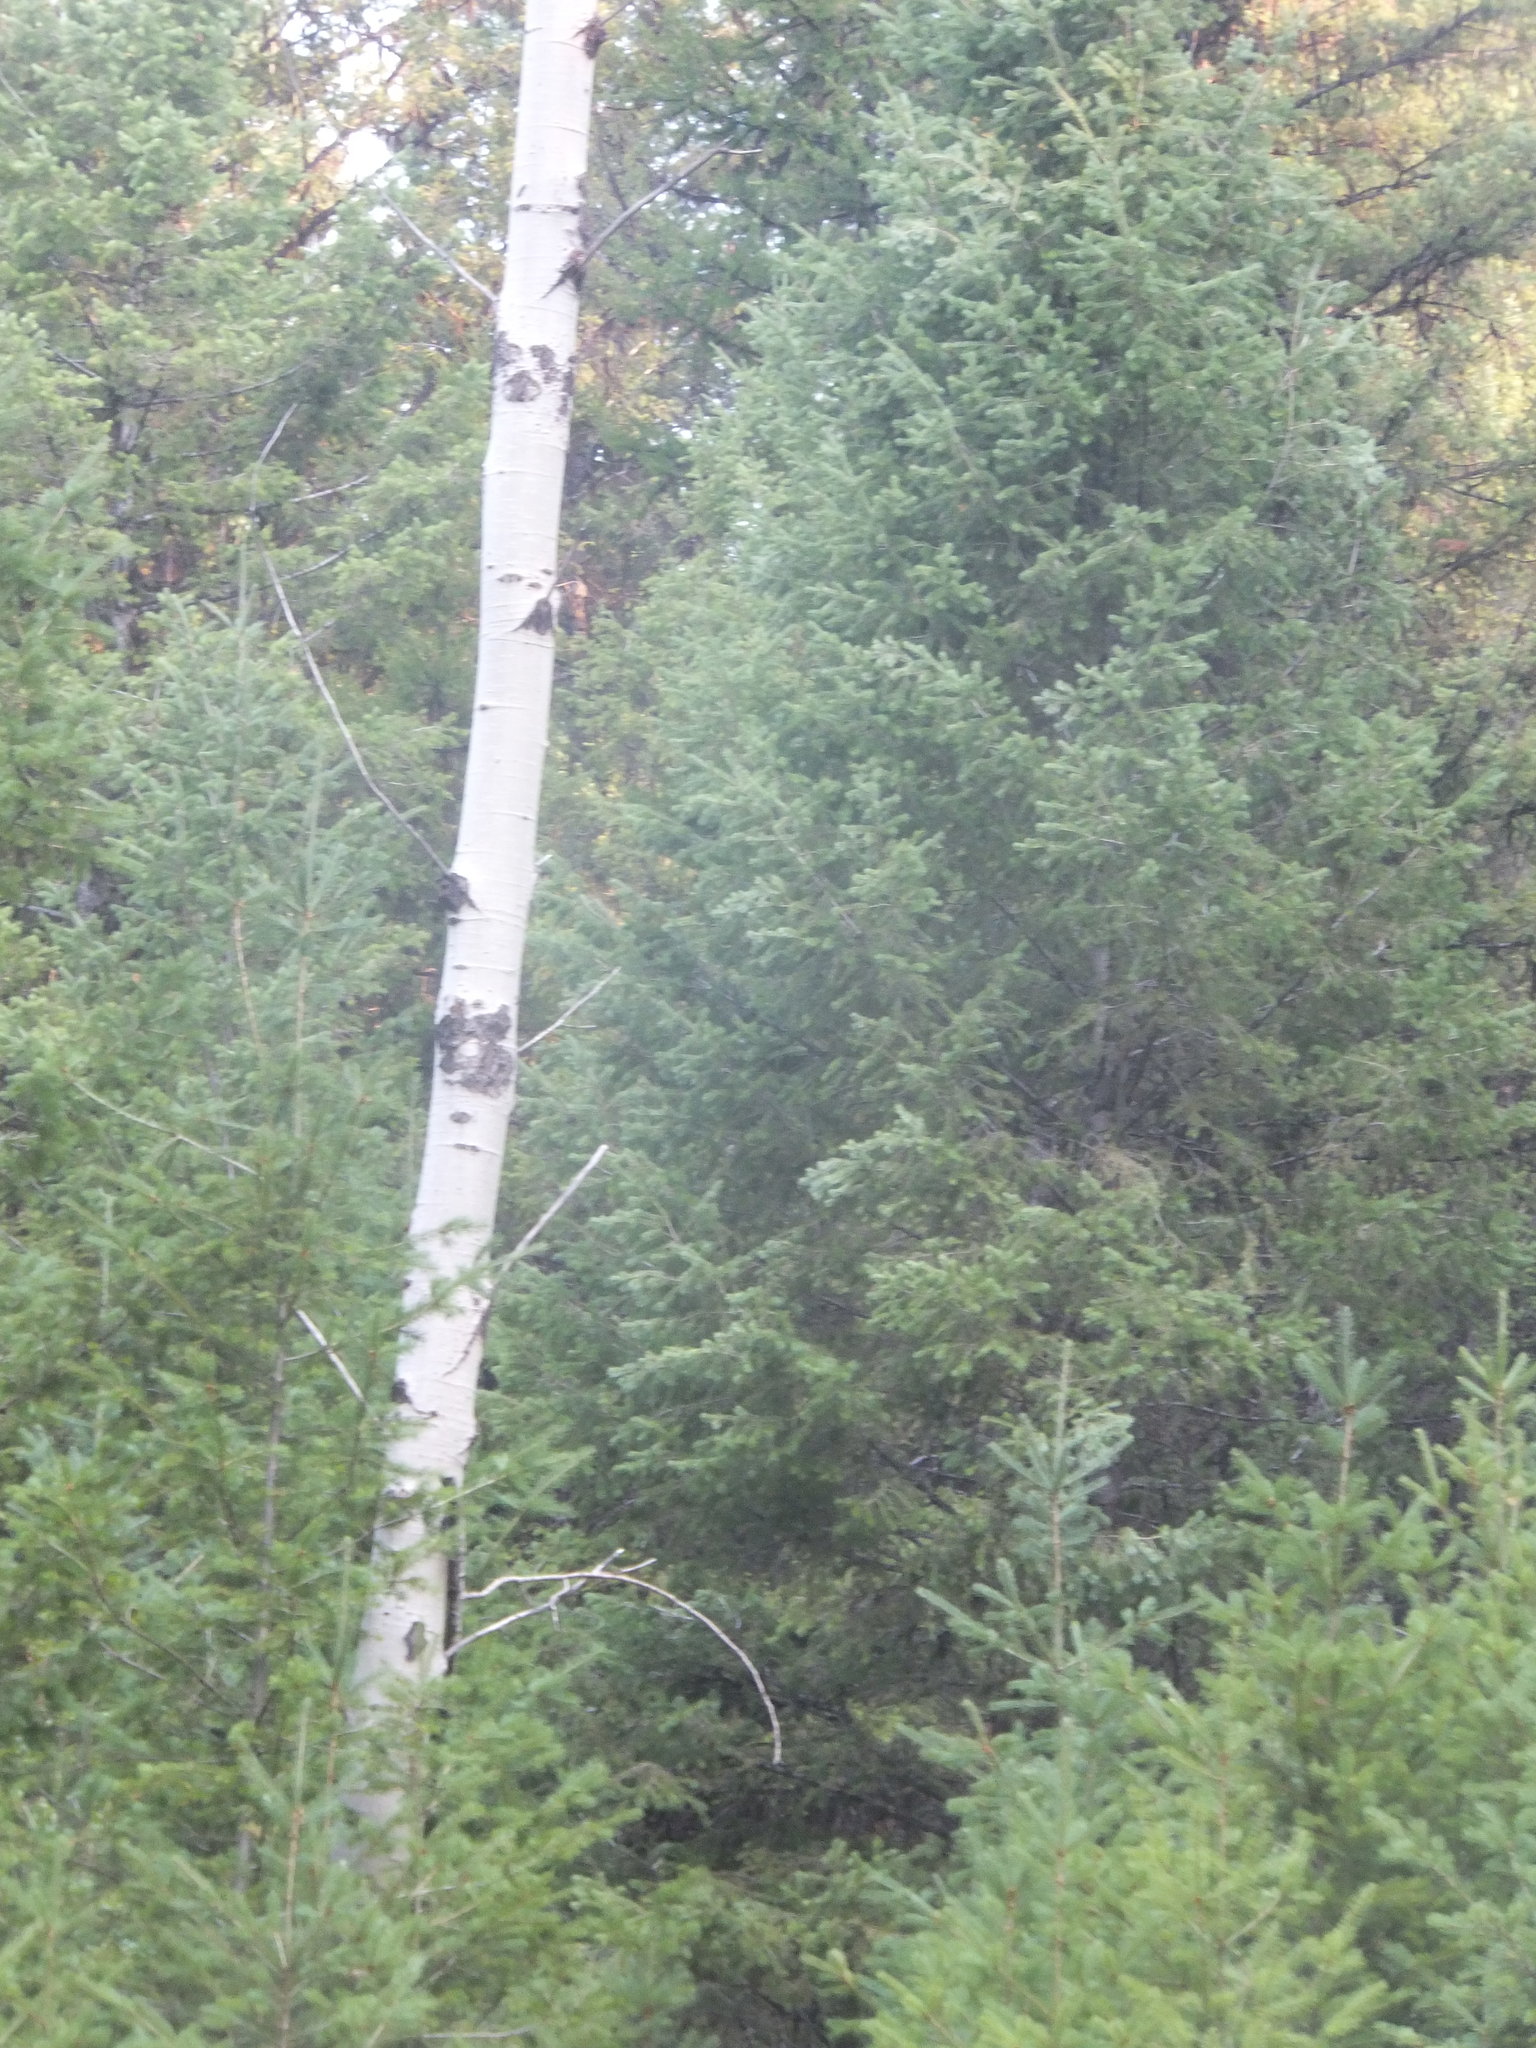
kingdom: Plantae
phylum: Tracheophyta
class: Magnoliopsida
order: Malpighiales
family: Salicaceae
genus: Populus
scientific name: Populus tremuloides
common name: Quaking aspen
